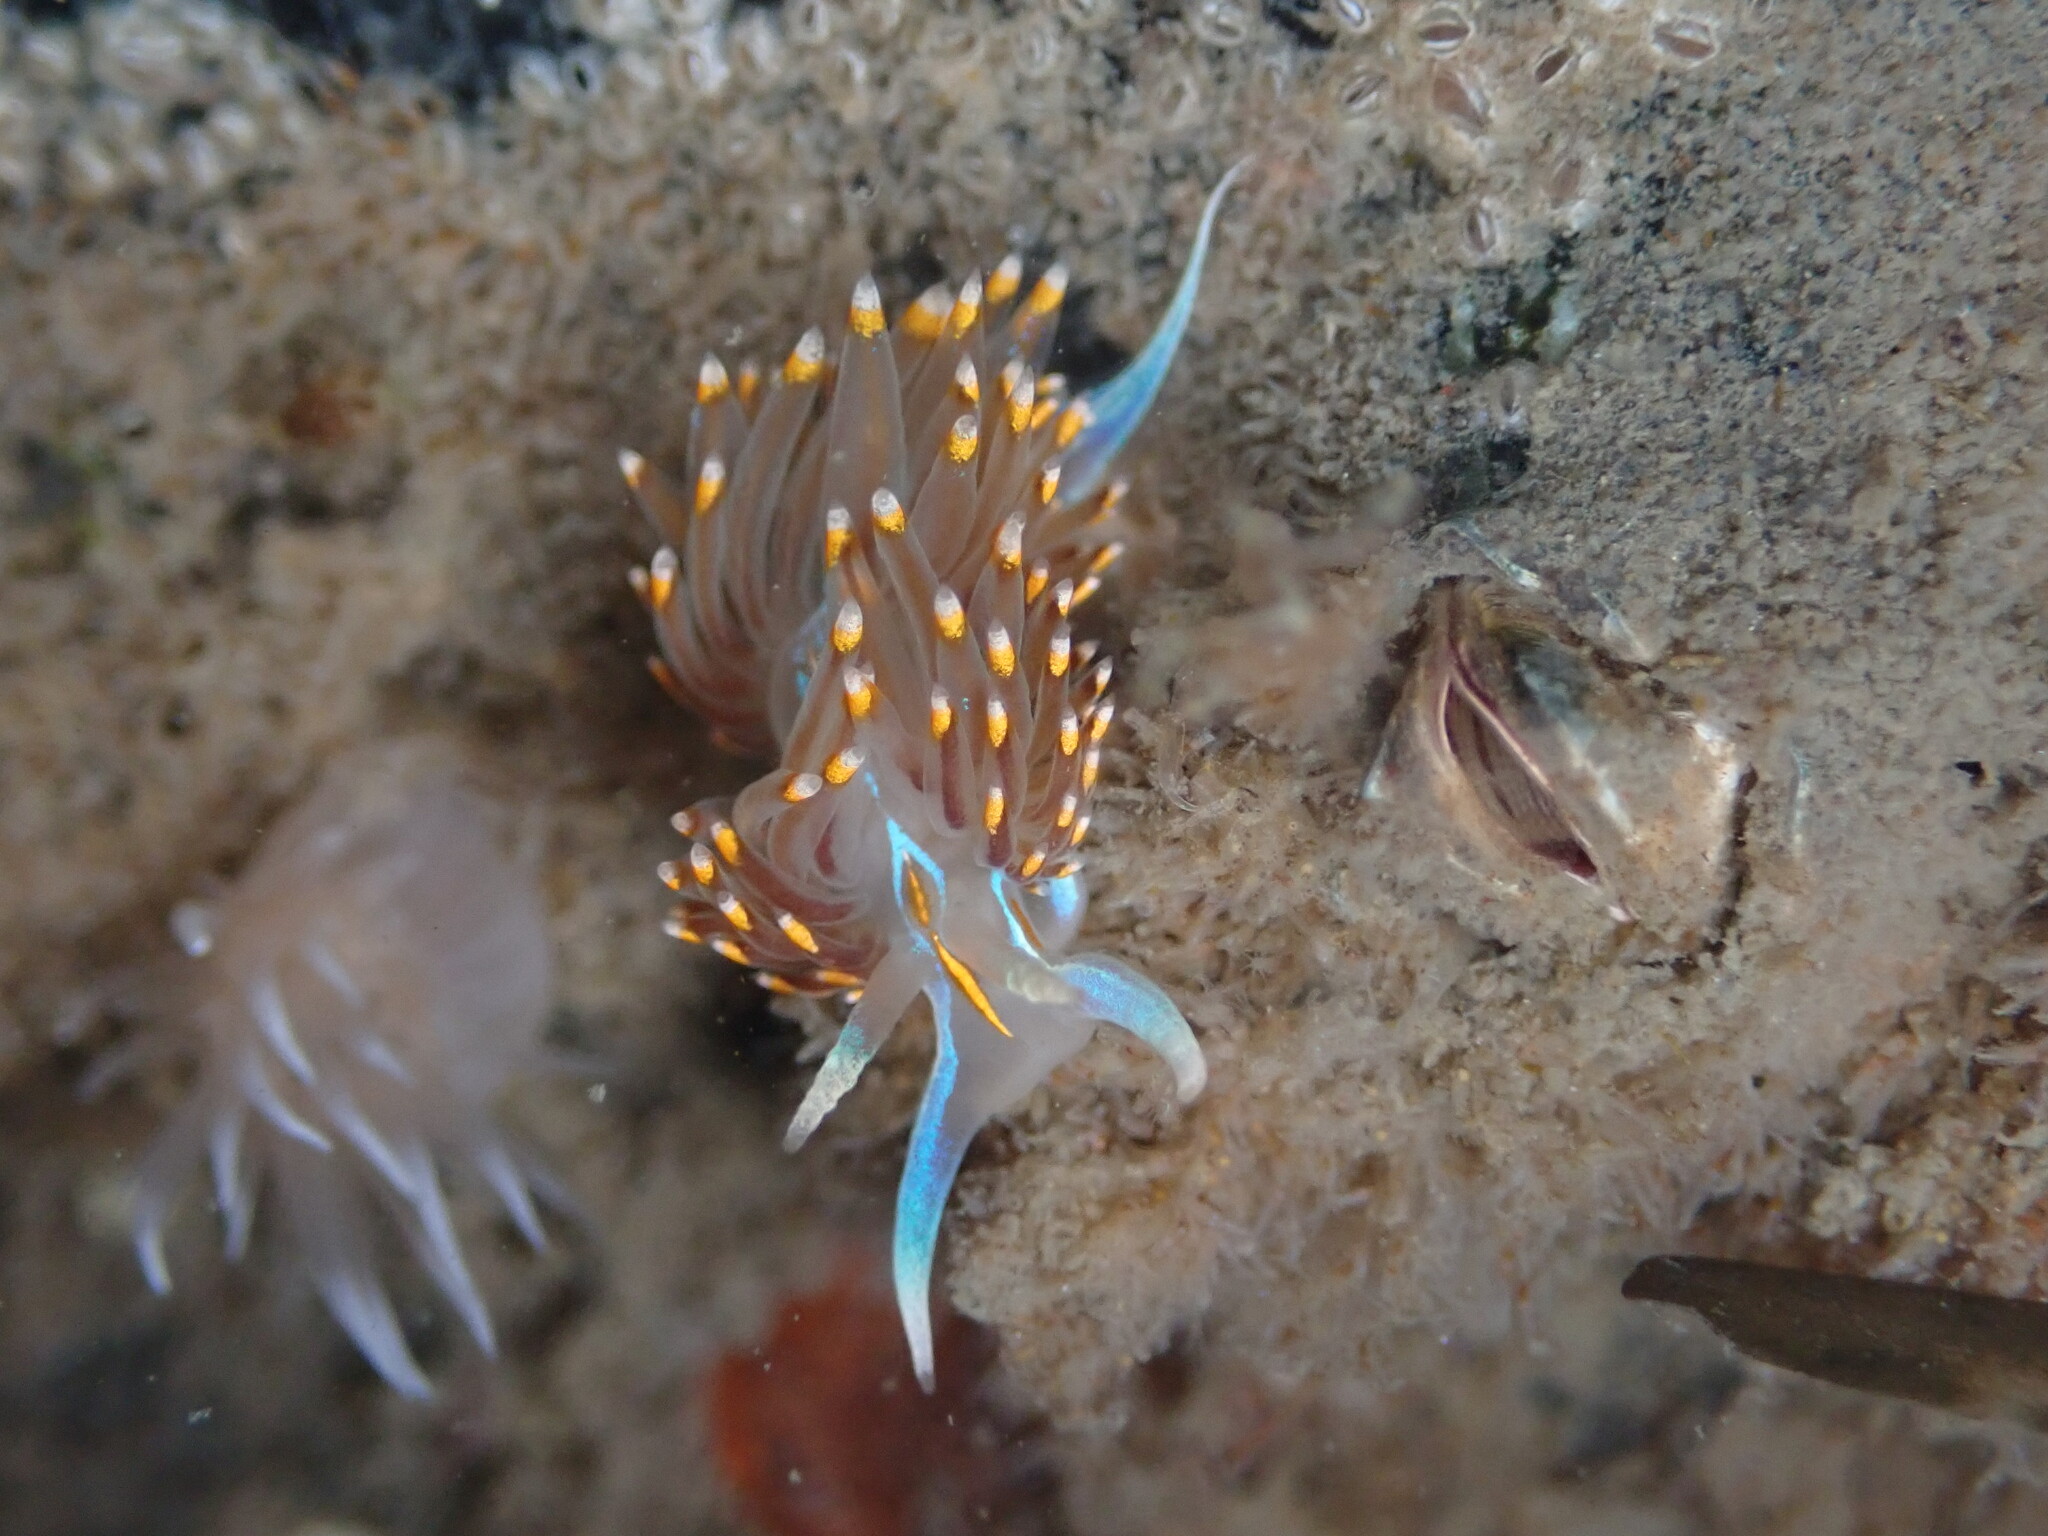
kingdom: Animalia
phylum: Mollusca
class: Gastropoda
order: Nudibranchia
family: Myrrhinidae
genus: Hermissenda
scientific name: Hermissenda opalescens
